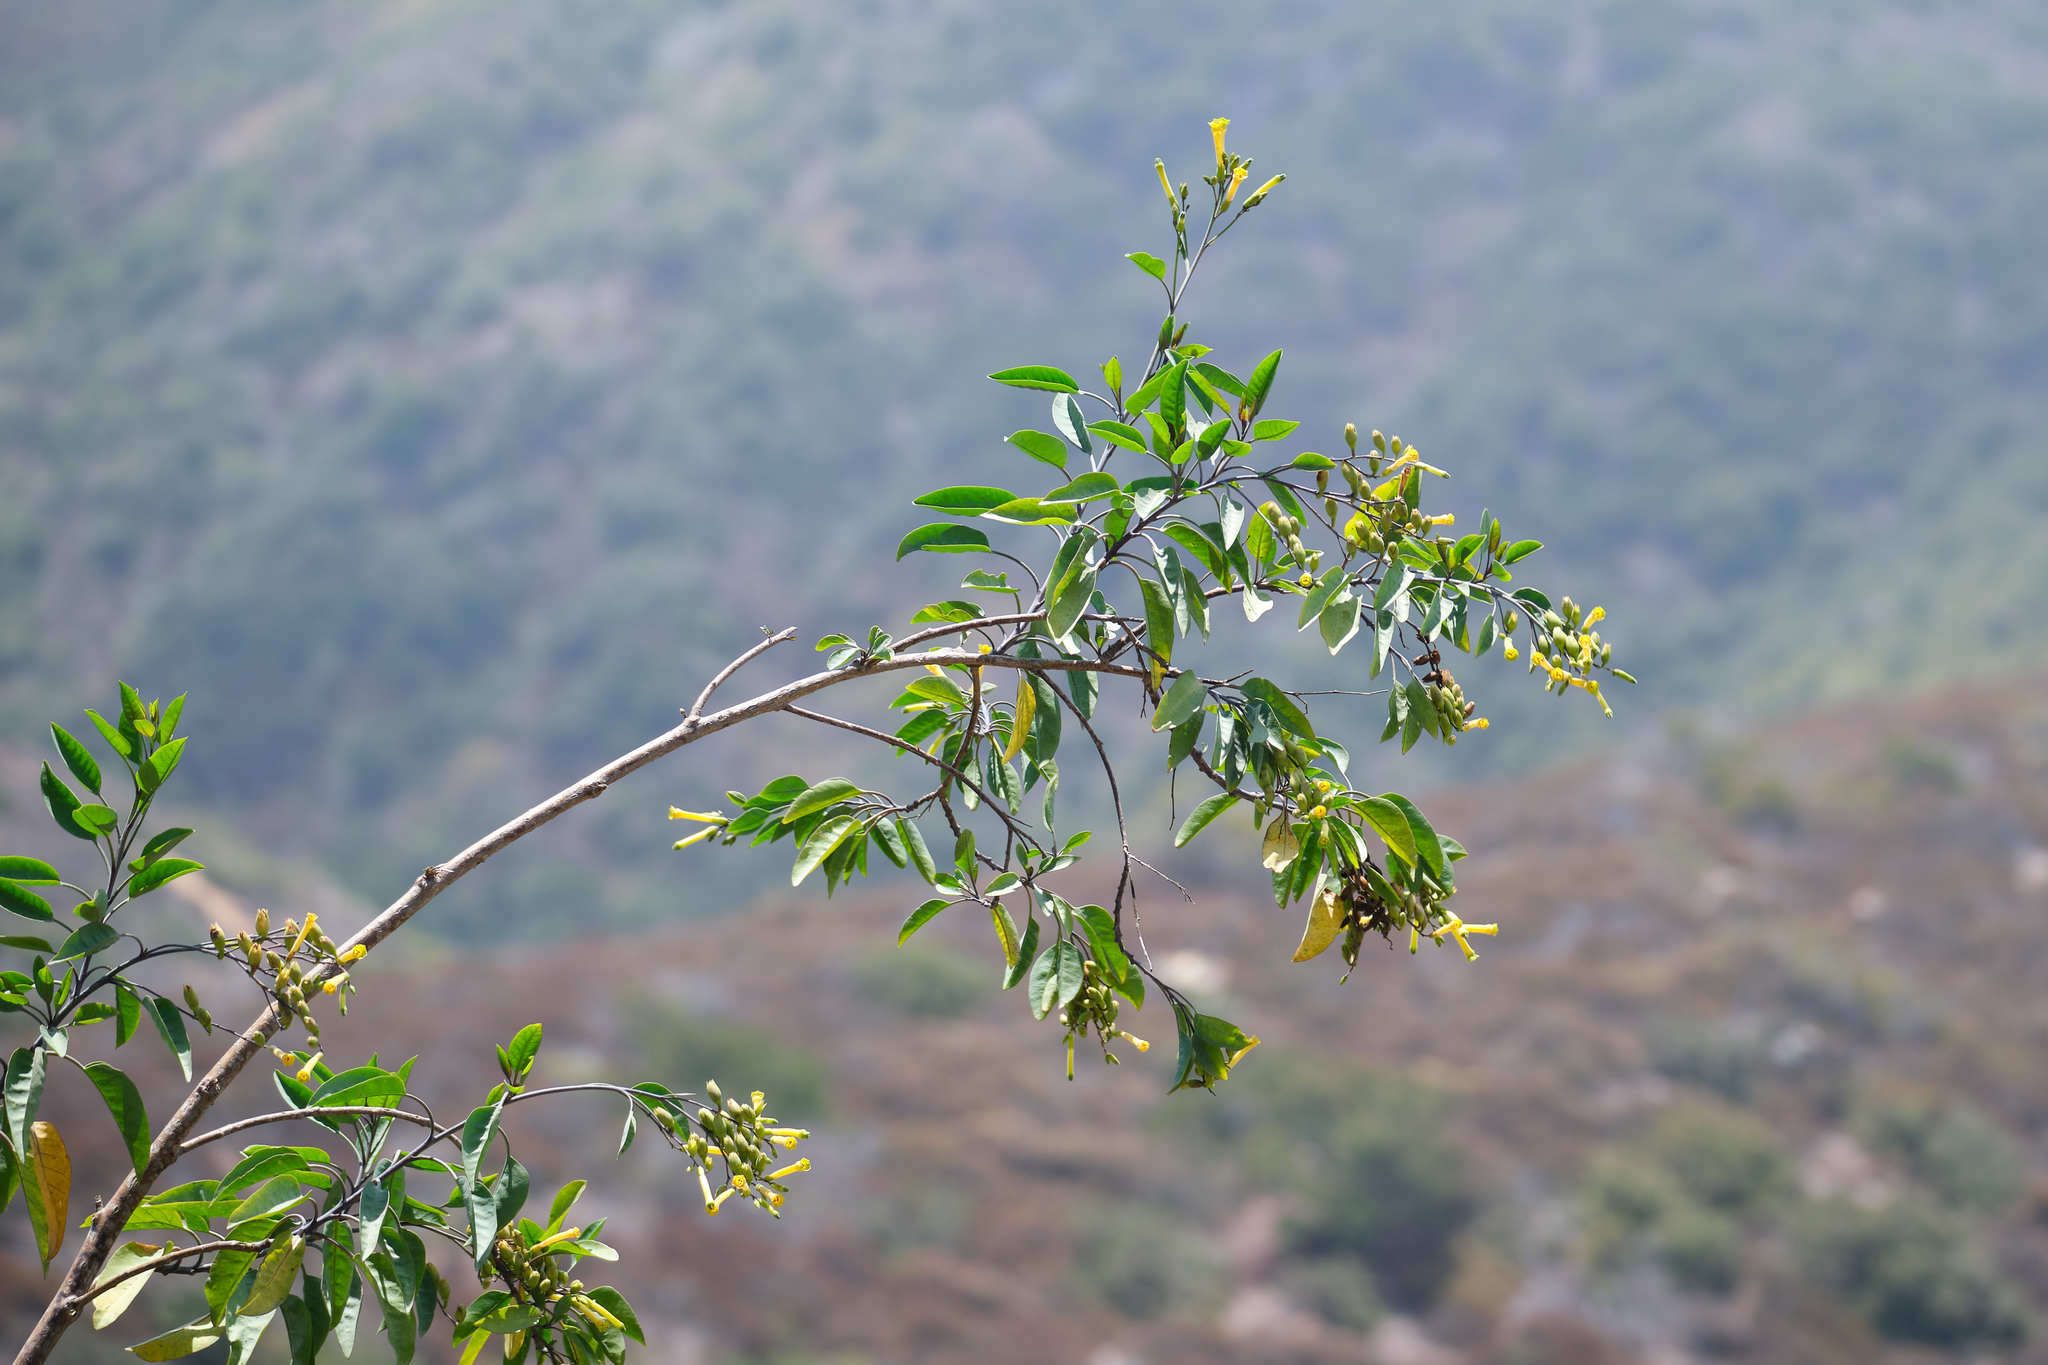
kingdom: Plantae
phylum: Tracheophyta
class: Magnoliopsida
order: Solanales
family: Solanaceae
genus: Nicotiana
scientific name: Nicotiana glauca
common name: Tree tobacco
